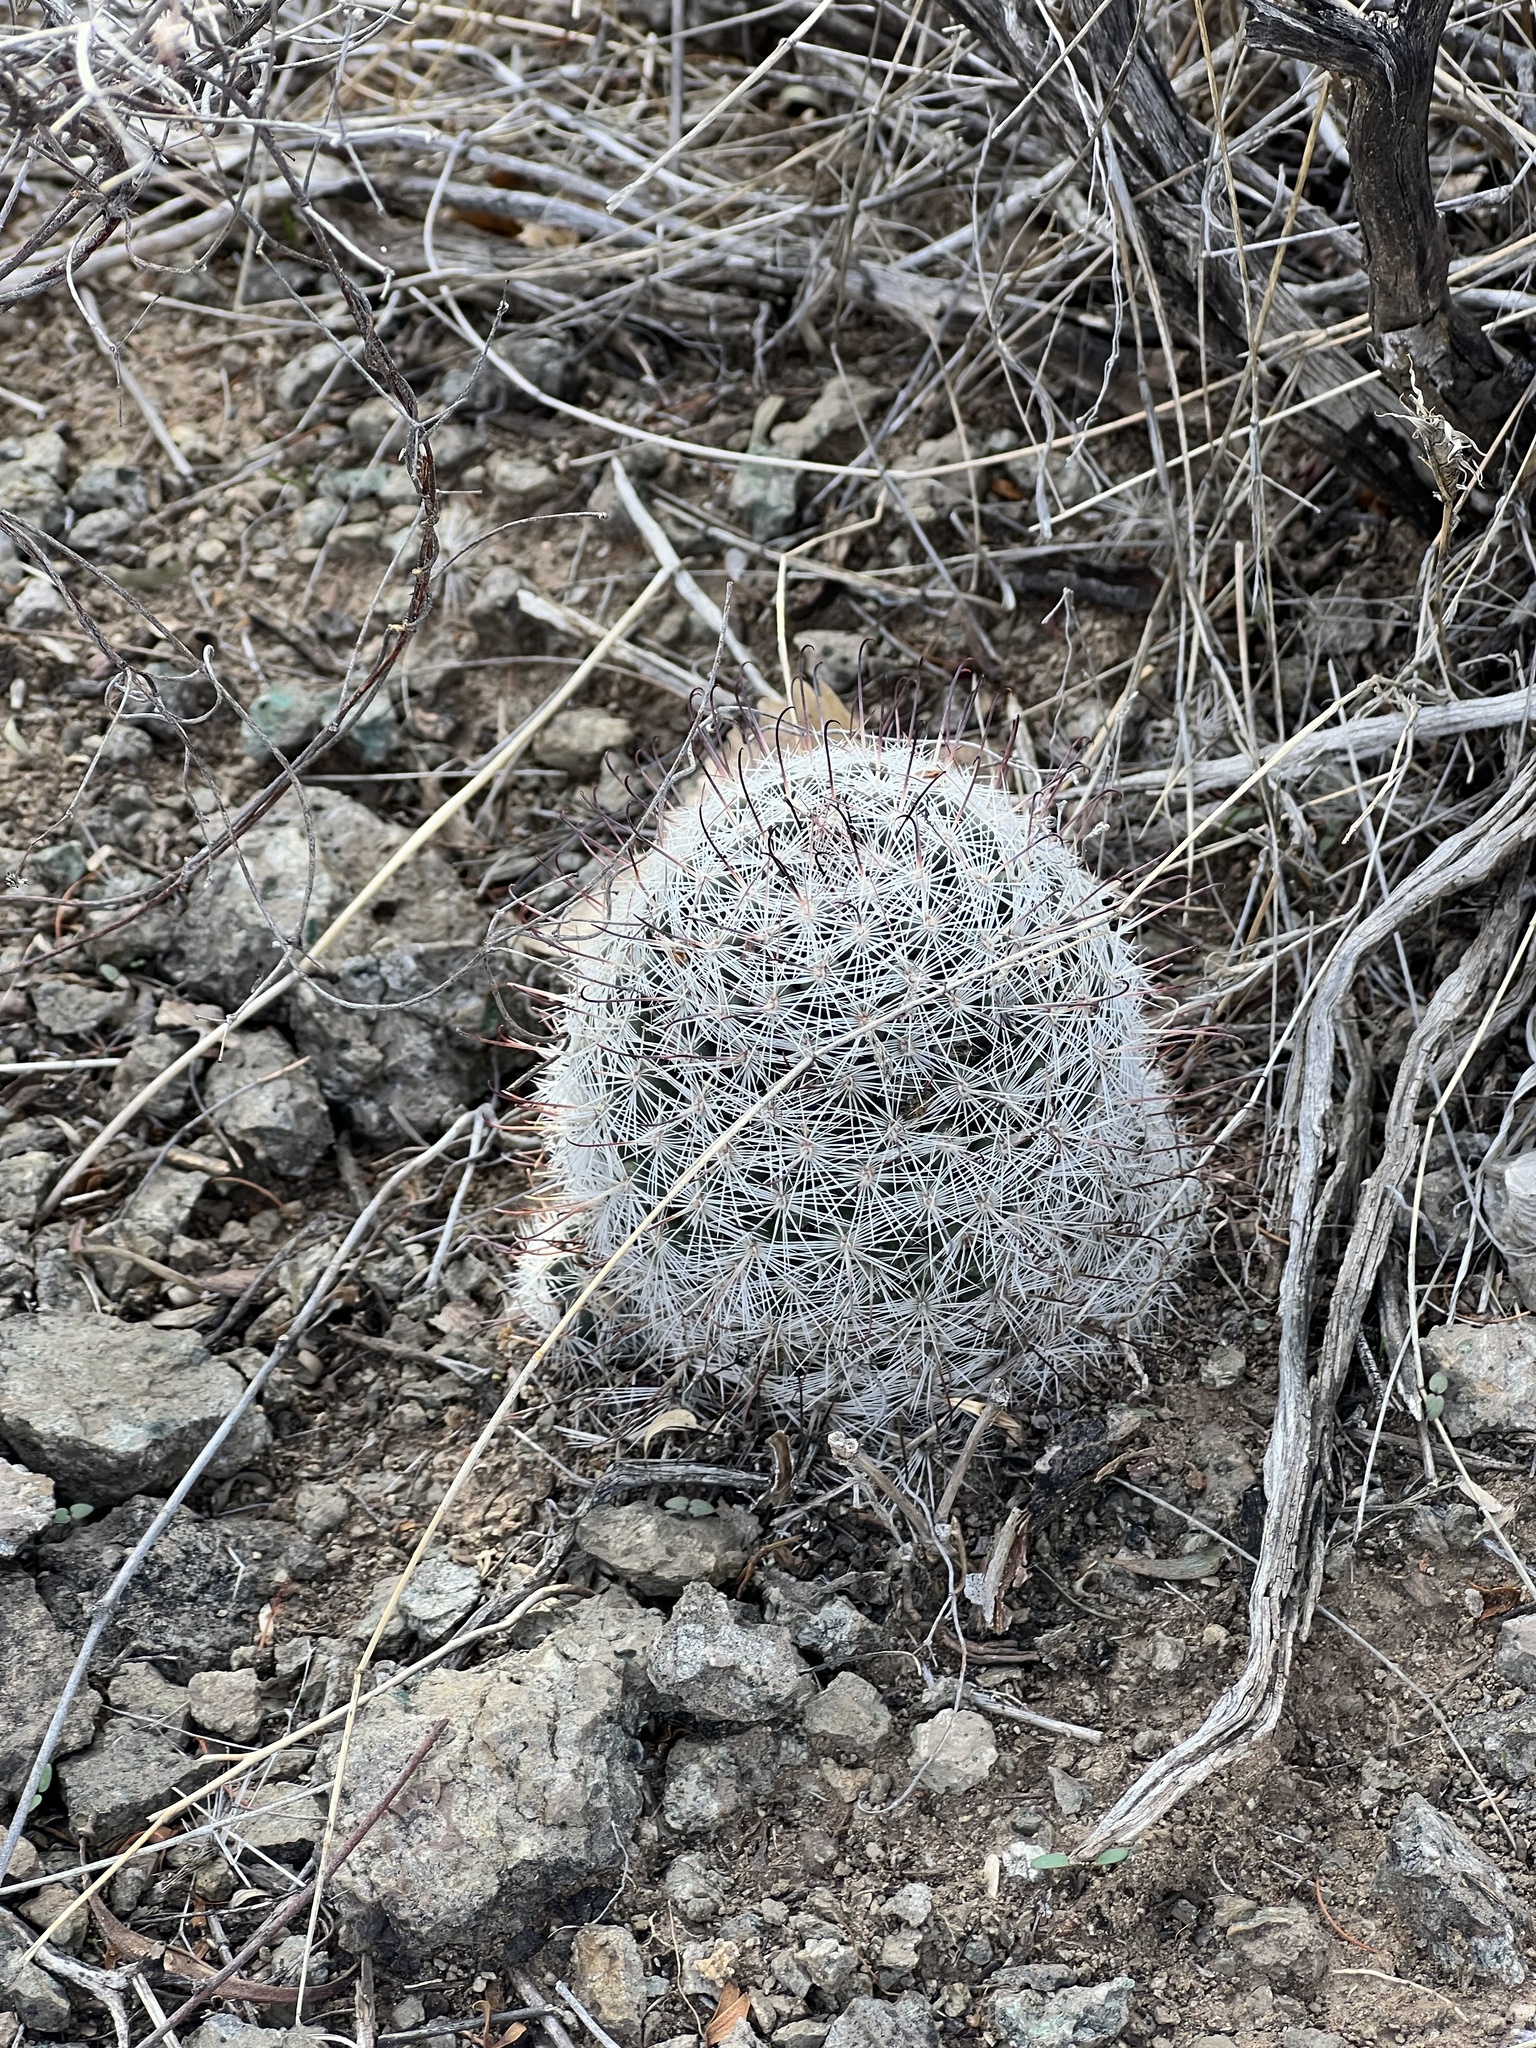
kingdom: Plantae
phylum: Tracheophyta
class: Magnoliopsida
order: Caryophyllales
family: Cactaceae
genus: Cochemiea
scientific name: Cochemiea grahamii
